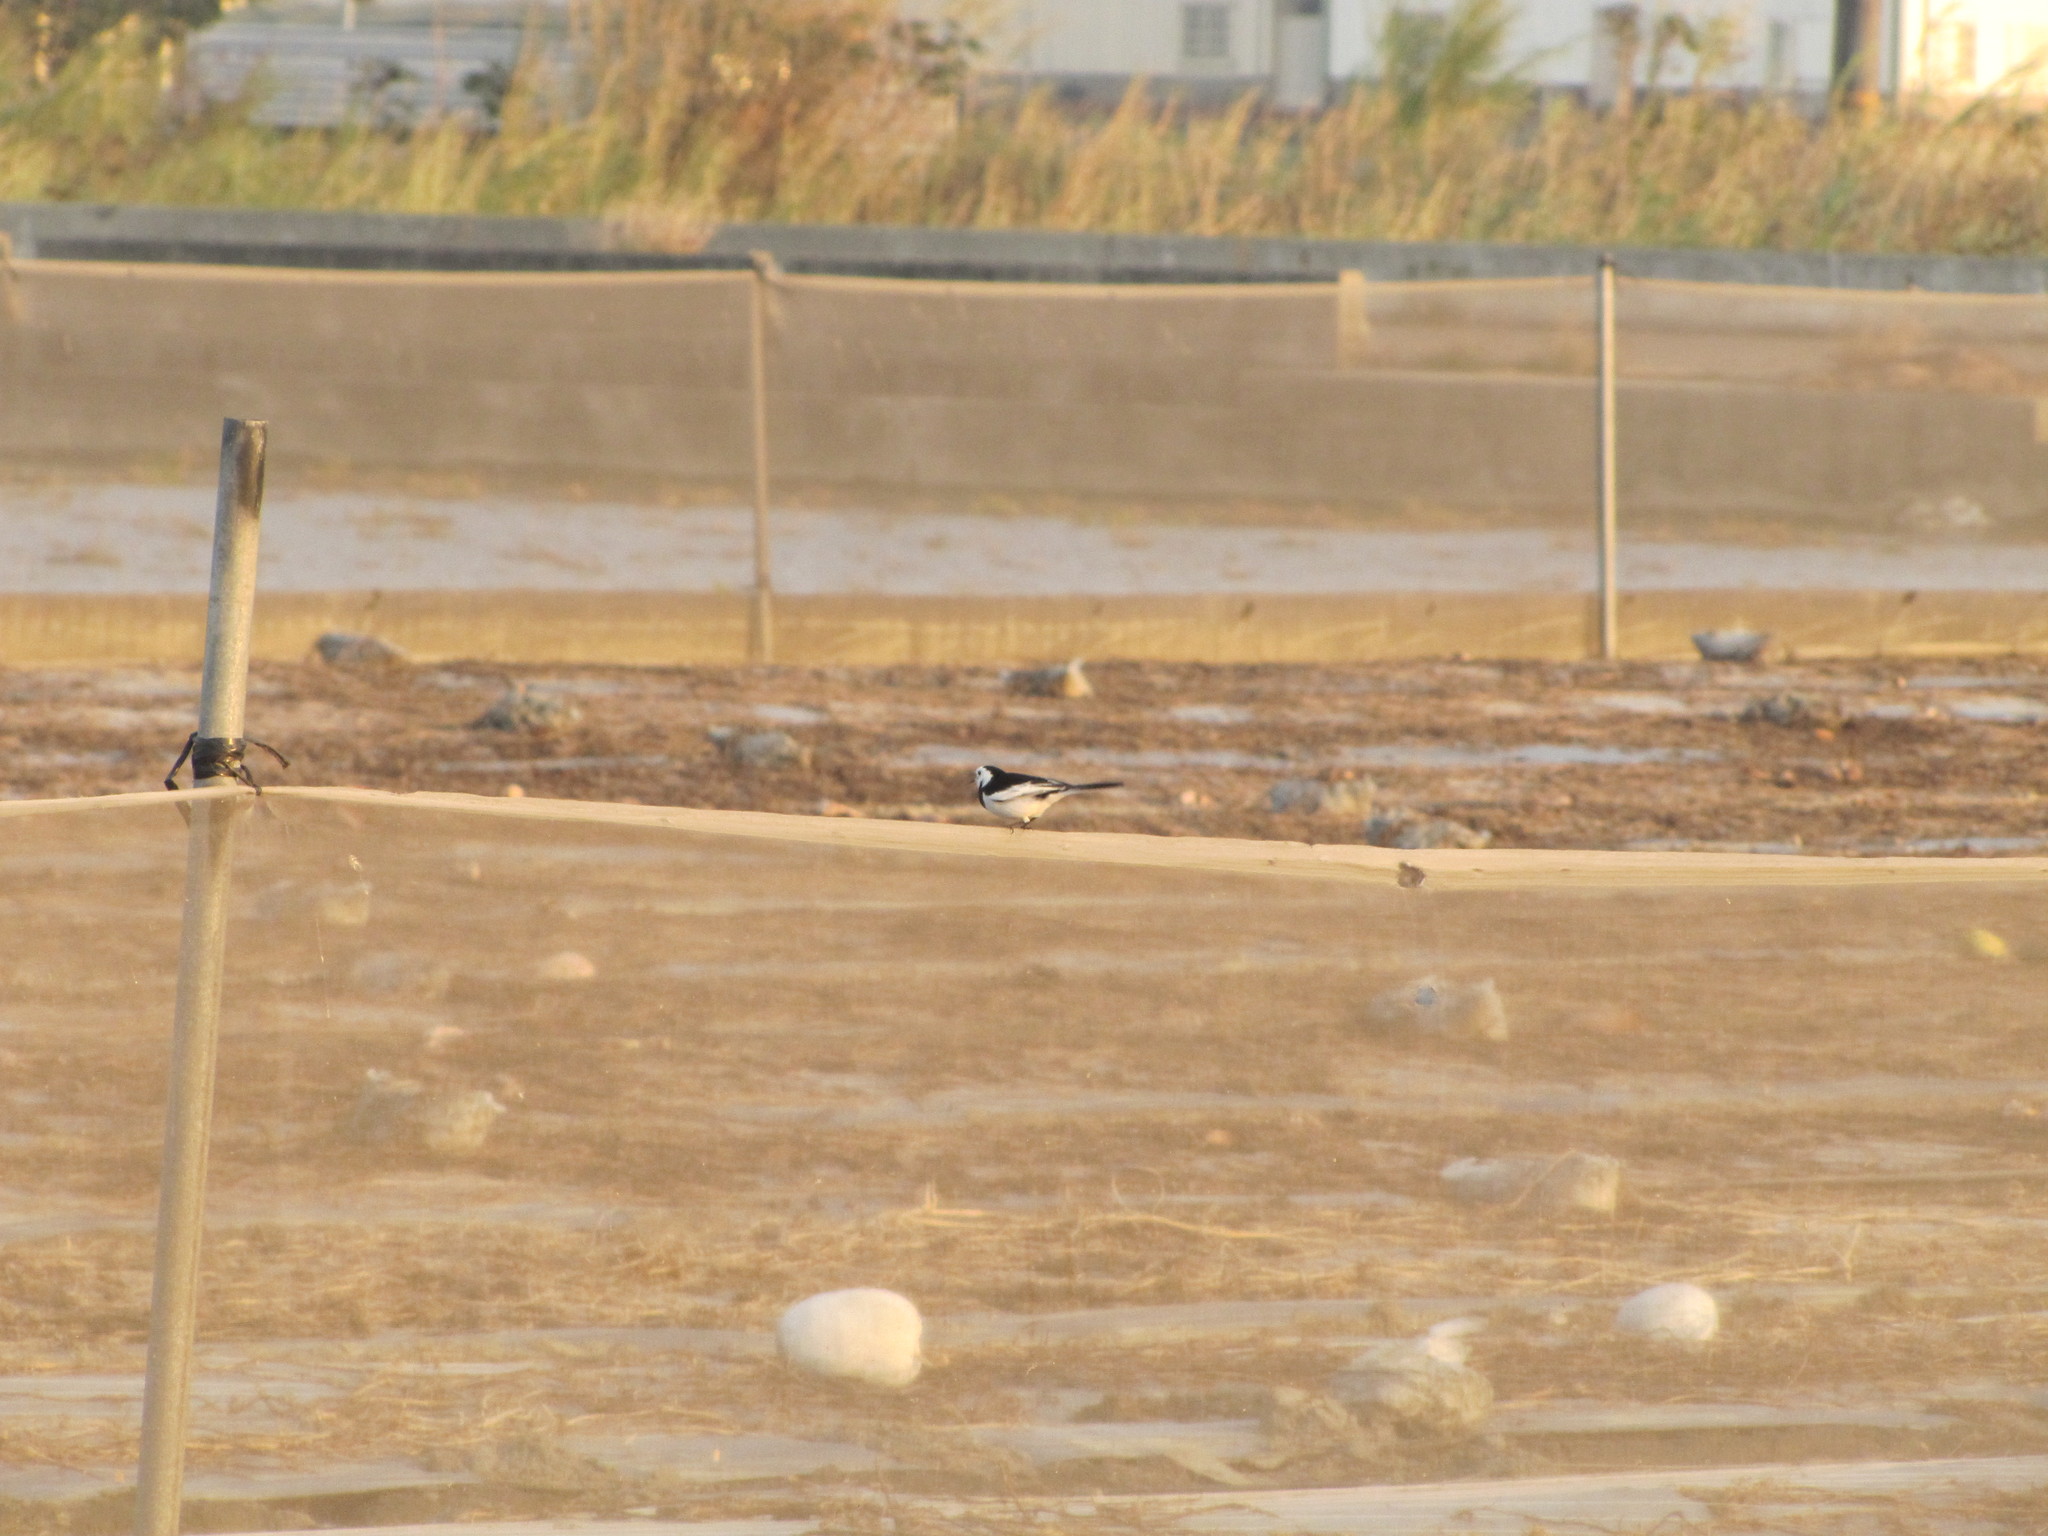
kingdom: Animalia
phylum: Chordata
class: Aves
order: Passeriformes
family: Motacillidae
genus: Motacilla
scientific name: Motacilla alba
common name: White wagtail
